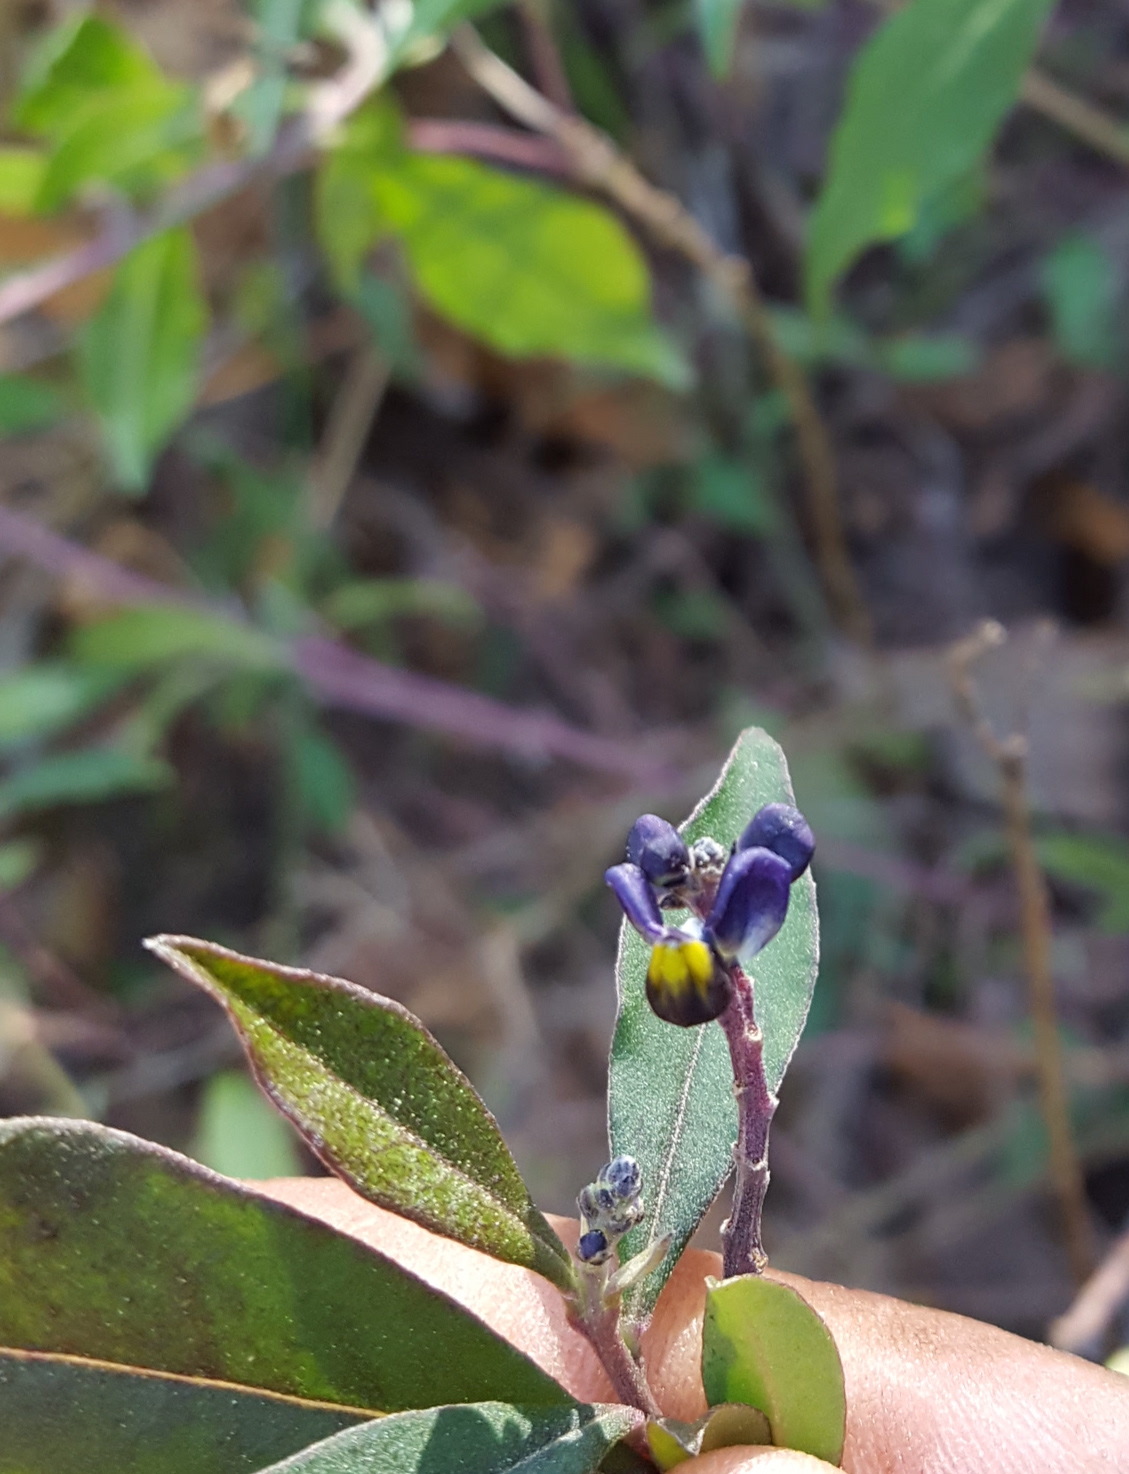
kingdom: Plantae
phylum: Tracheophyta
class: Magnoliopsida
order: Fabales
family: Polygalaceae
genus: Monnina
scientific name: Monnina ciliolata
